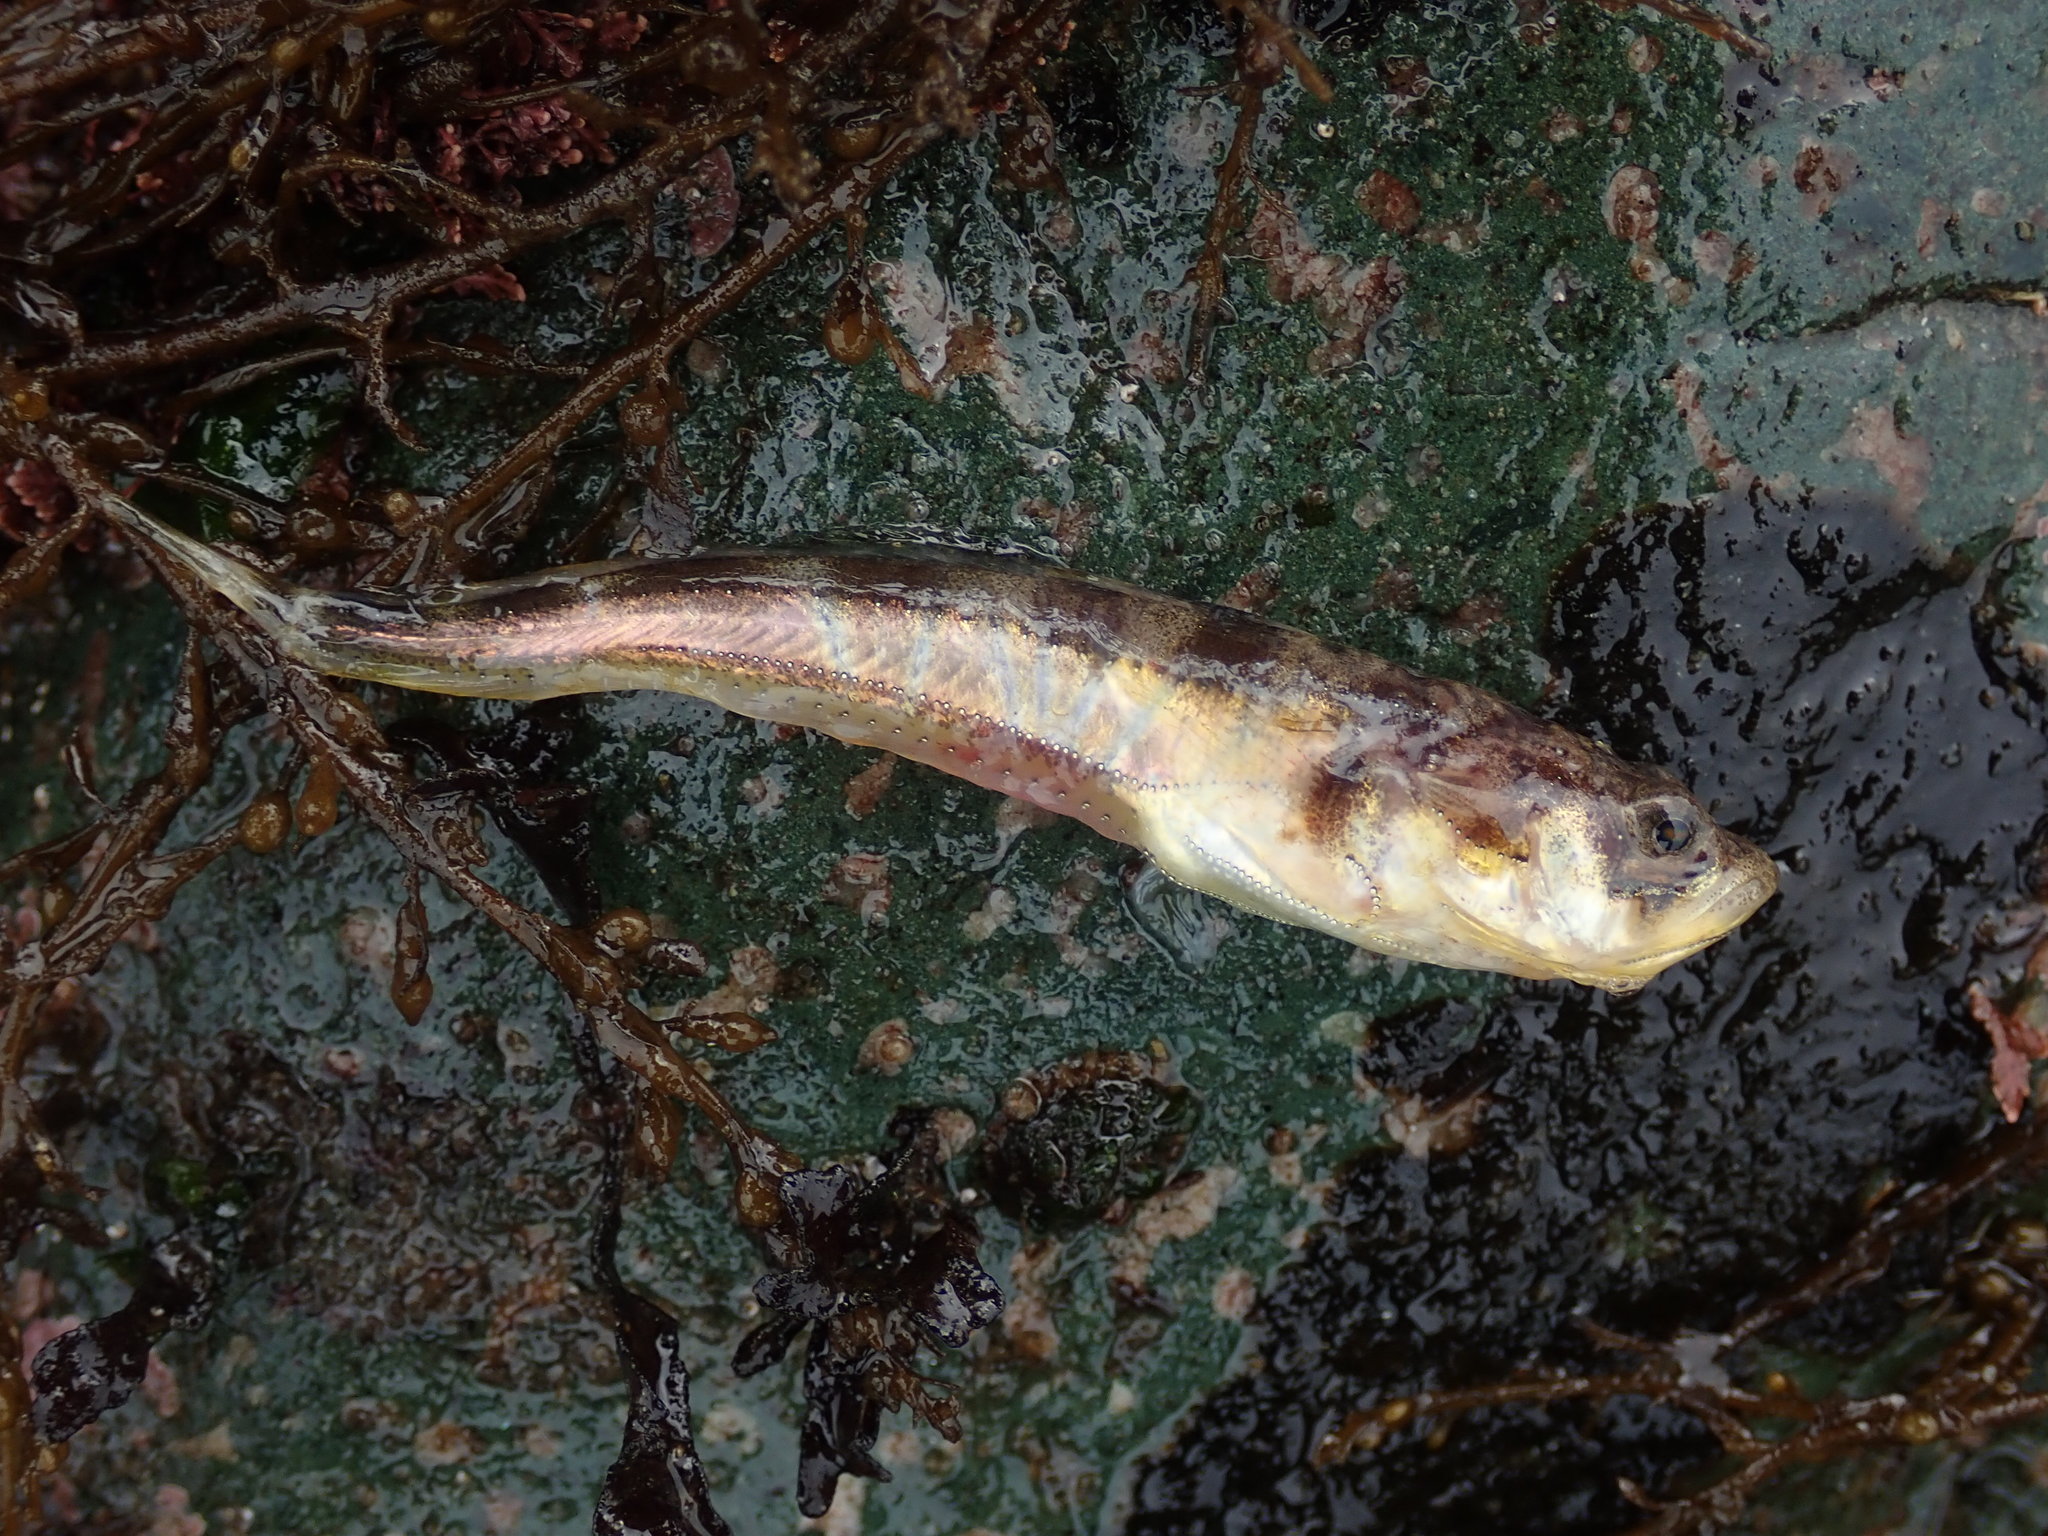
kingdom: Animalia
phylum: Chordata
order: Batrachoidiformes
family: Batrachoididae
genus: Porichthys
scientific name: Porichthys notatus
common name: Plainfin midshipman
